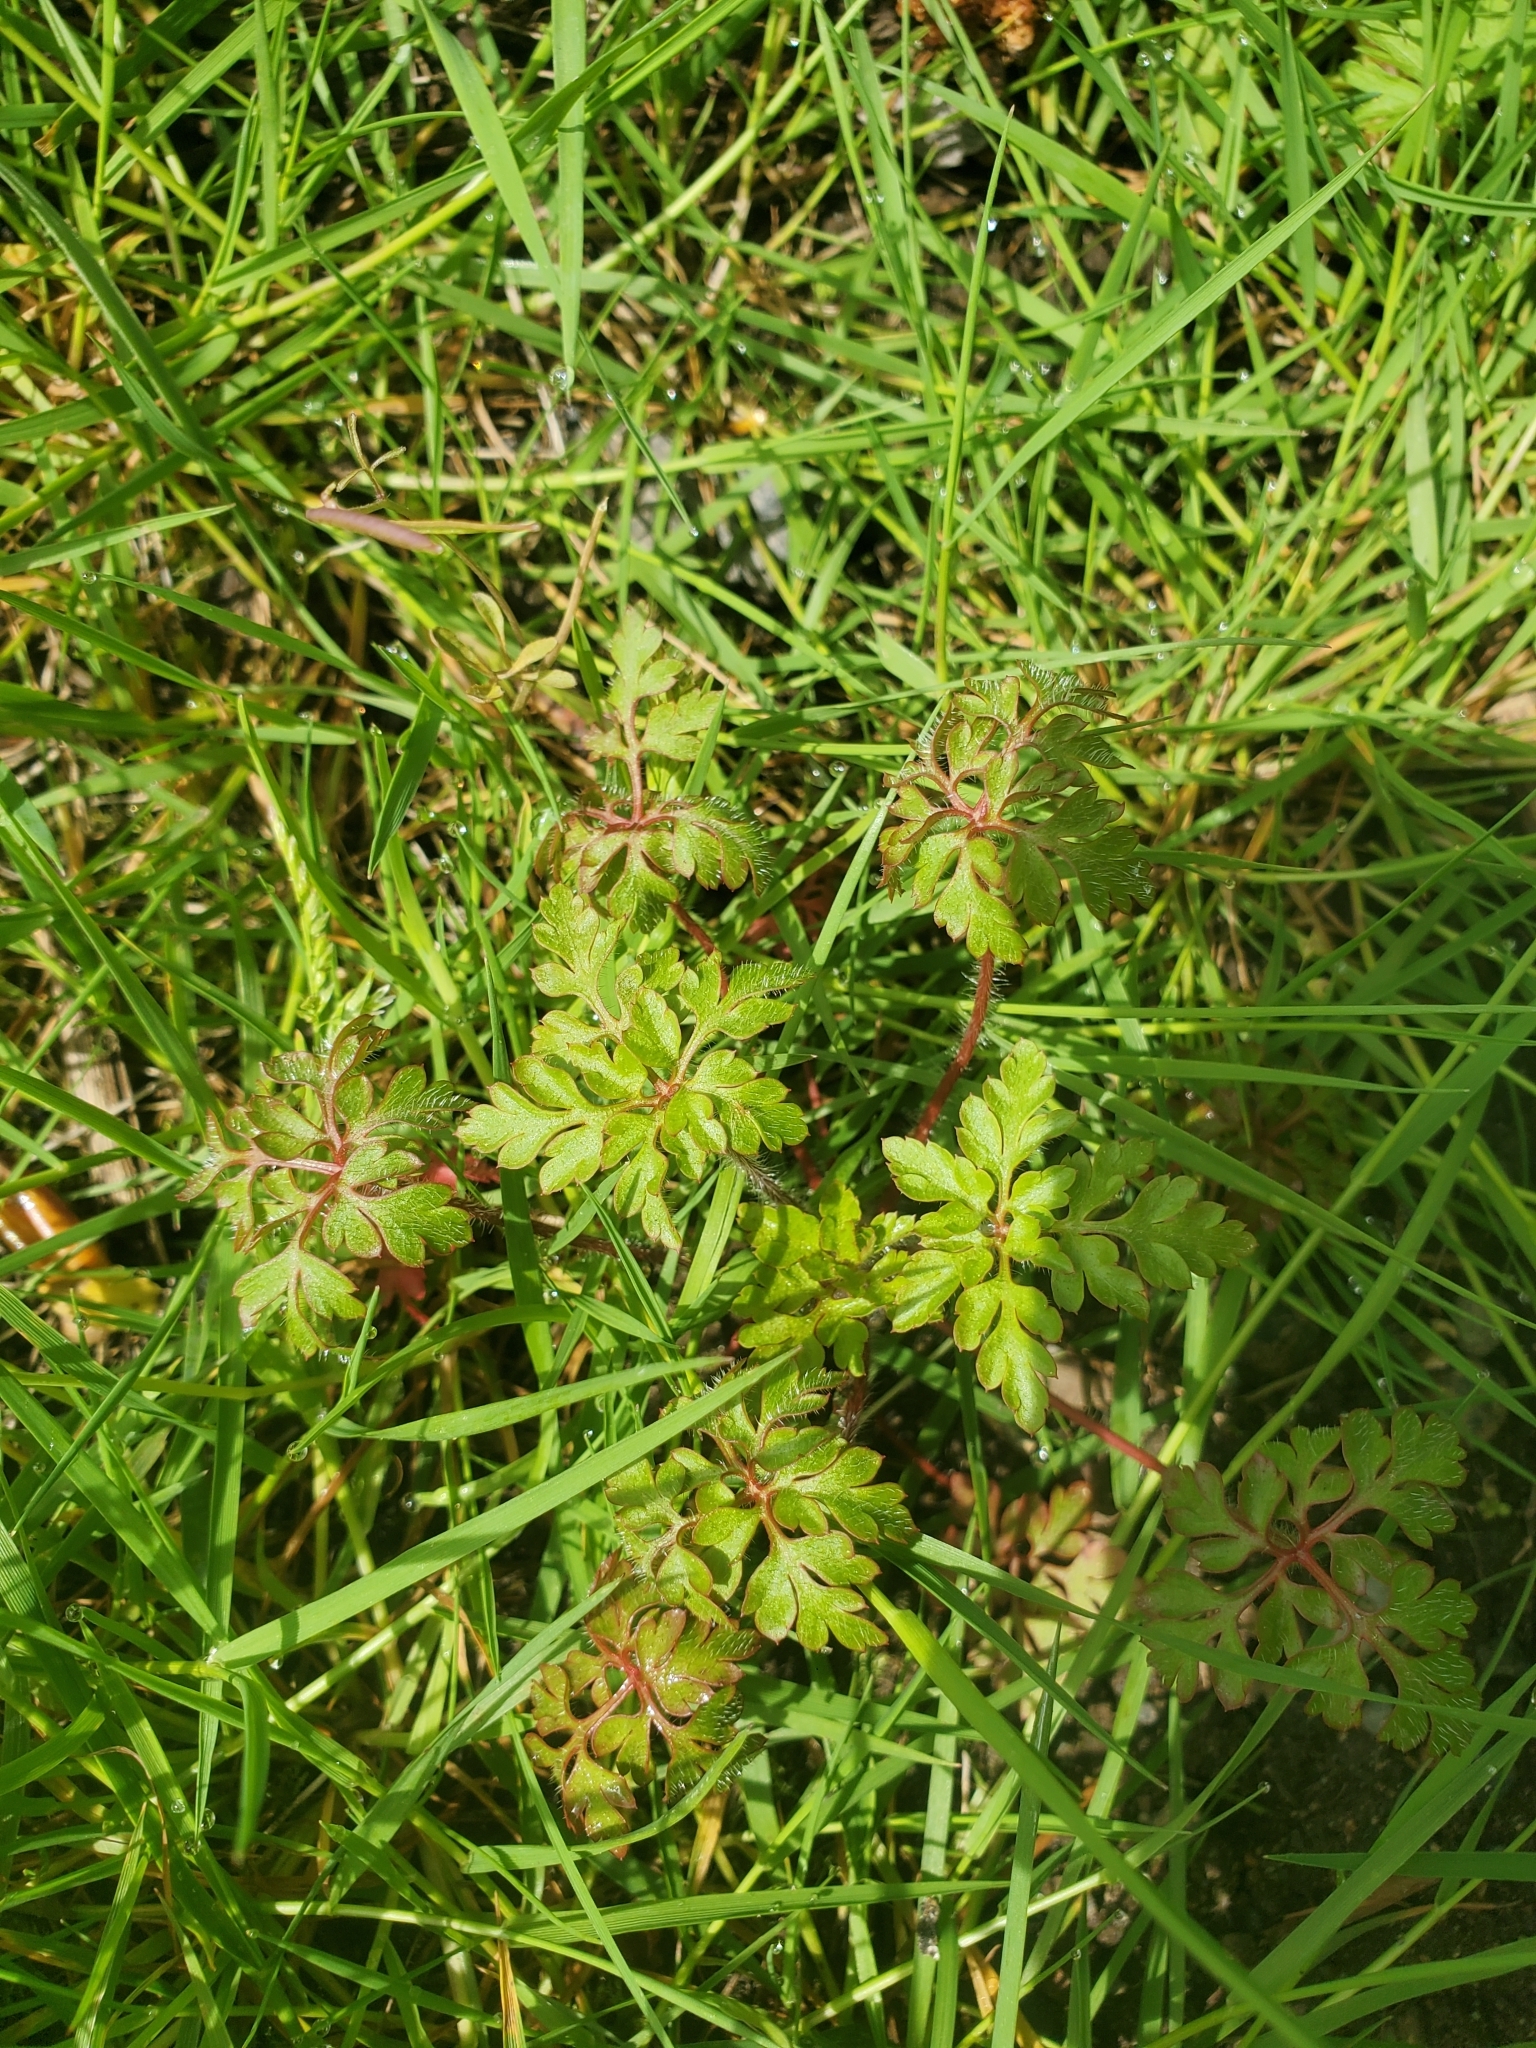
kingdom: Plantae
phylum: Tracheophyta
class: Magnoliopsida
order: Geraniales
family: Geraniaceae
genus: Geranium
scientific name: Geranium robertianum
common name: Herb-robert
